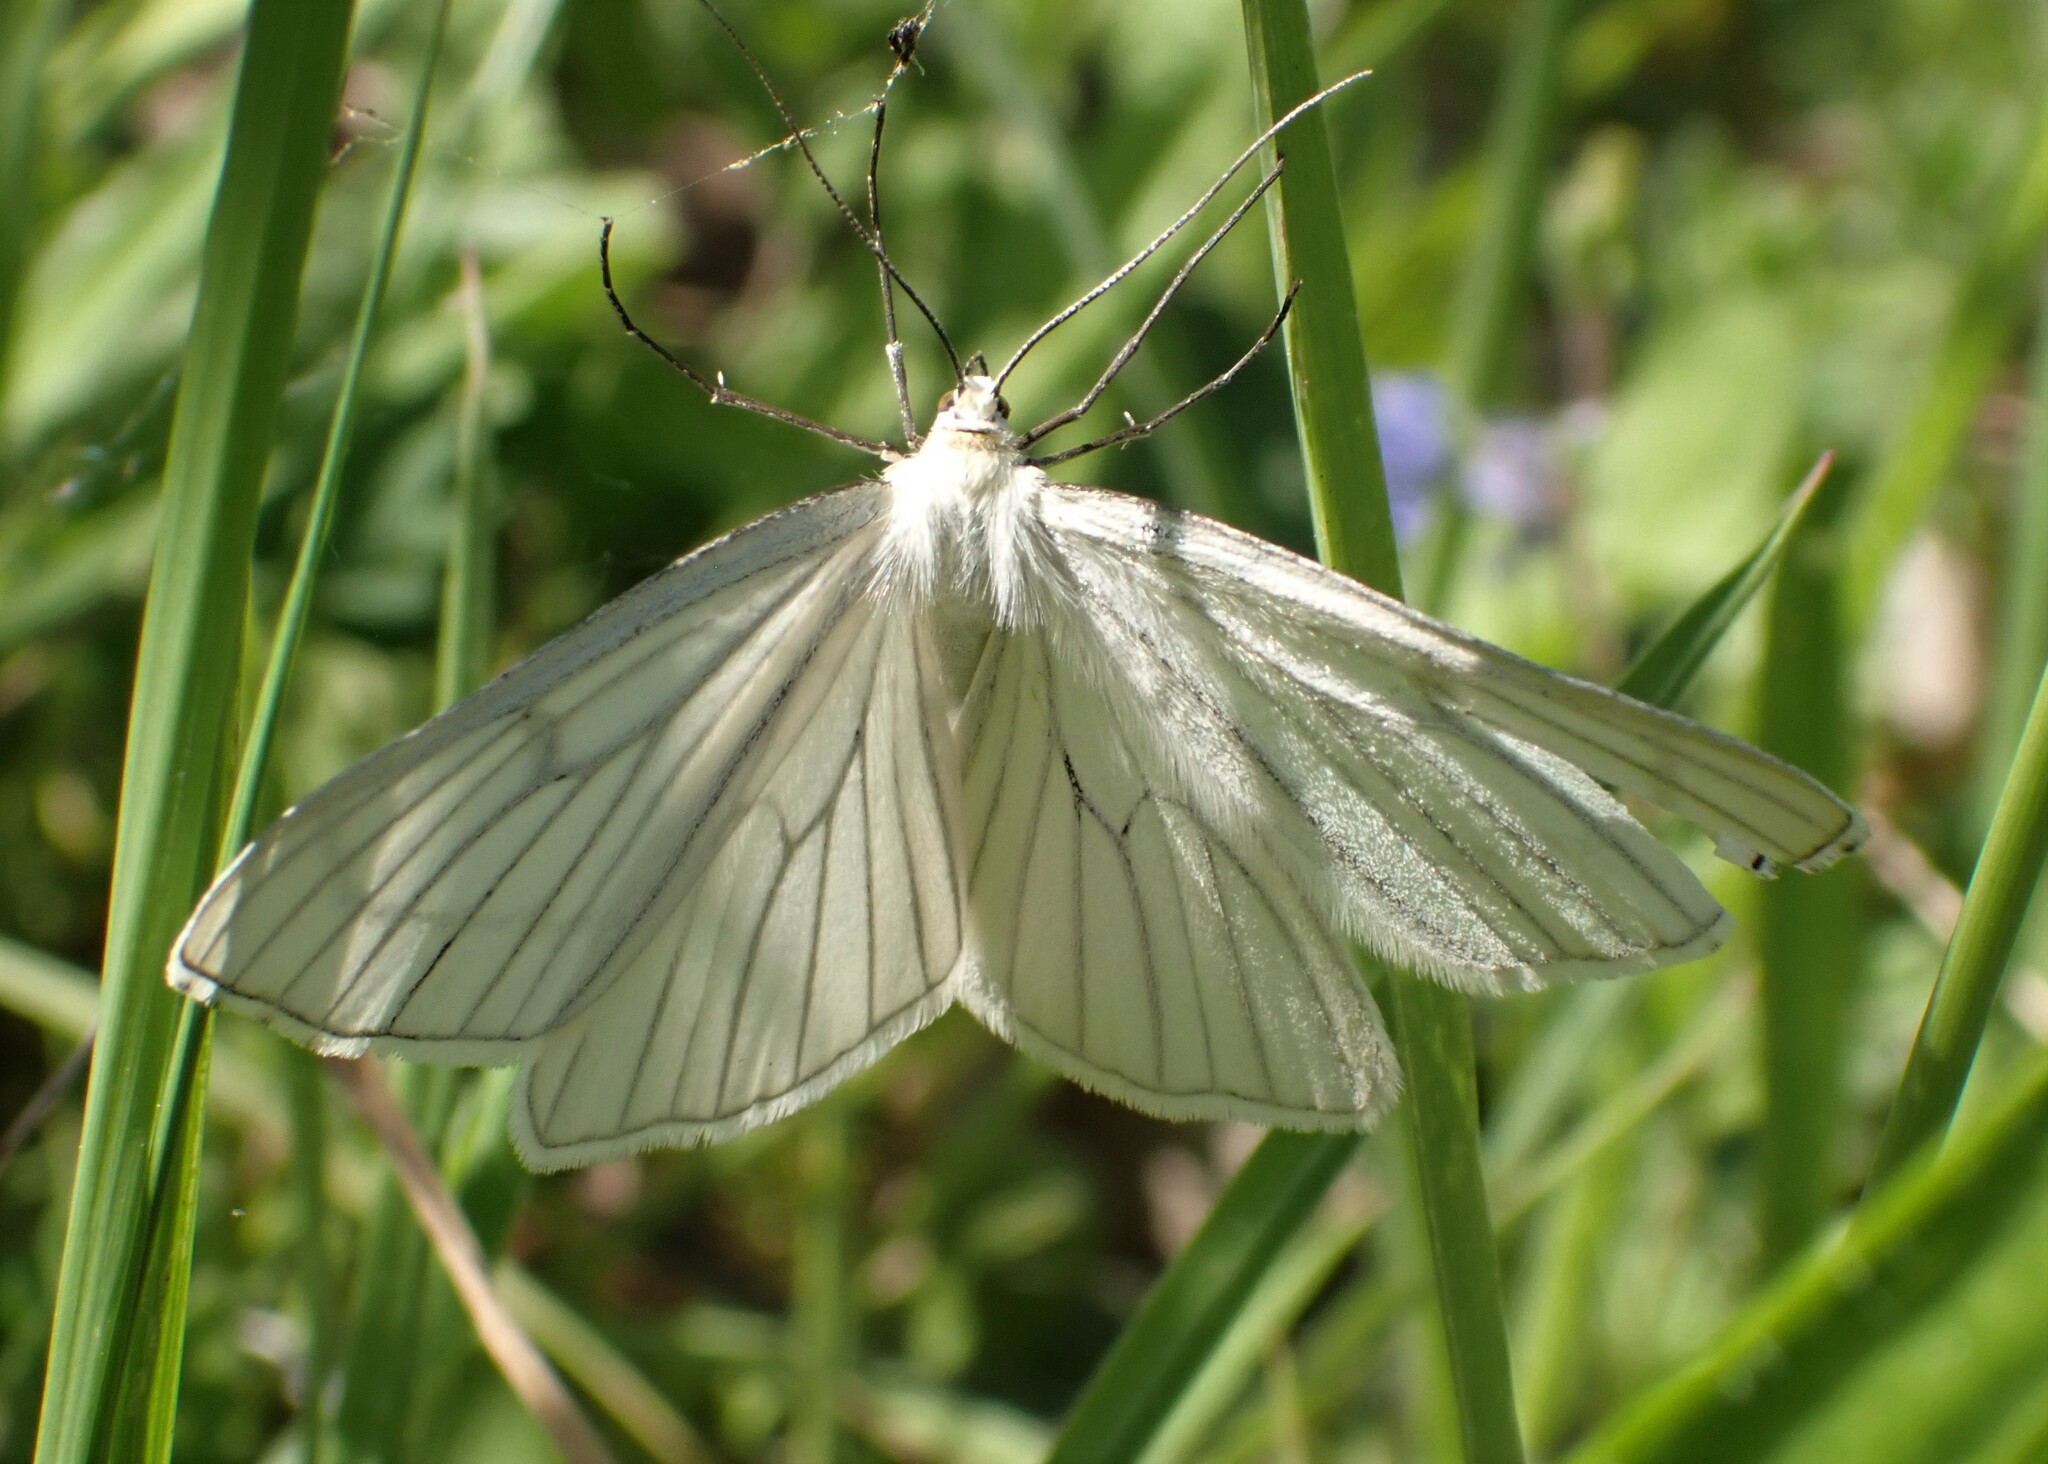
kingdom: Animalia
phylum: Arthropoda
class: Insecta
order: Lepidoptera
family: Geometridae
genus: Siona
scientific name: Siona lineata
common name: Black-veined moth
